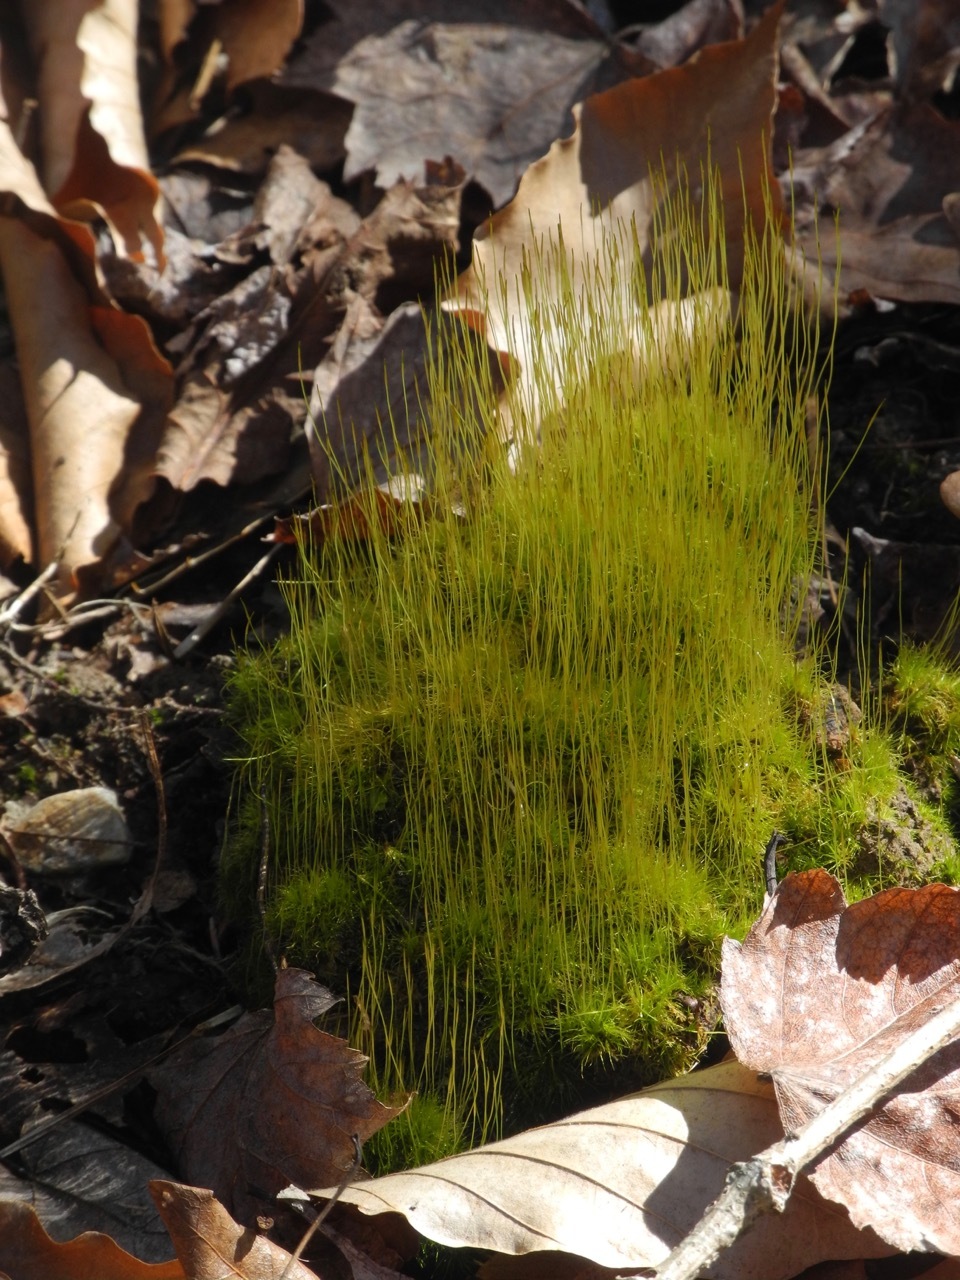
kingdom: Plantae
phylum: Bryophyta
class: Bryopsida
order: Dicranales
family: Ditrichaceae
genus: Ditrichum
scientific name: Ditrichum pallidum
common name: Pale cow-hair moss
